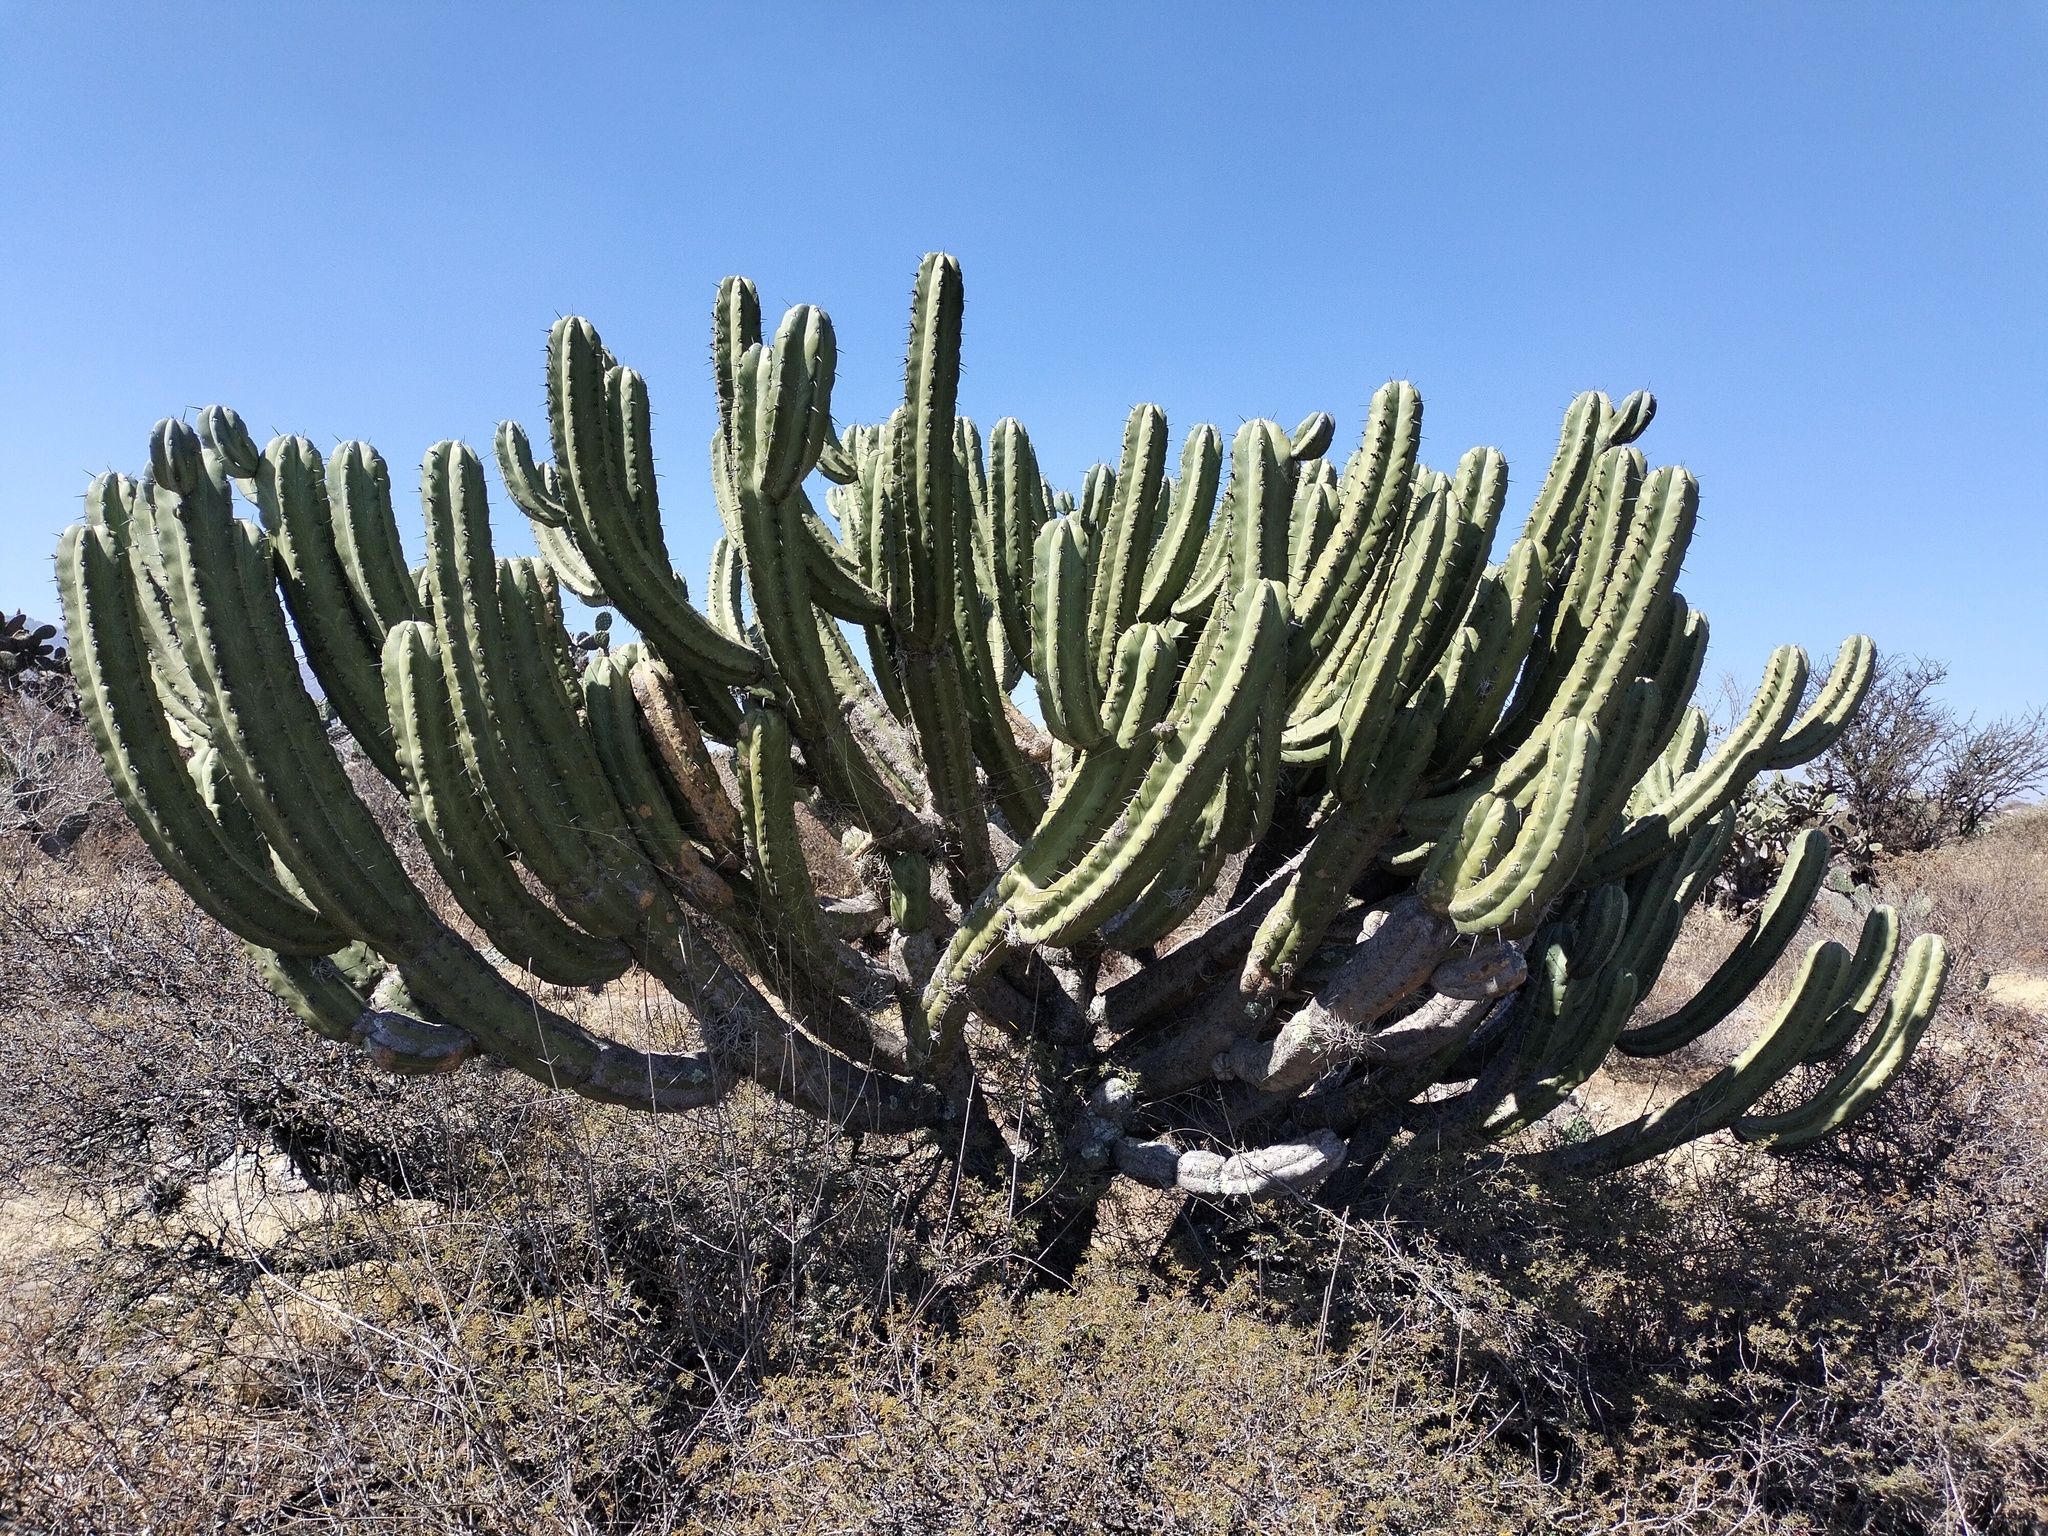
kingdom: Plantae
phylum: Tracheophyta
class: Magnoliopsida
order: Caryophyllales
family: Cactaceae
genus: Myrtillocactus
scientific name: Myrtillocactus geometrizans
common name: Bilberry cactus
